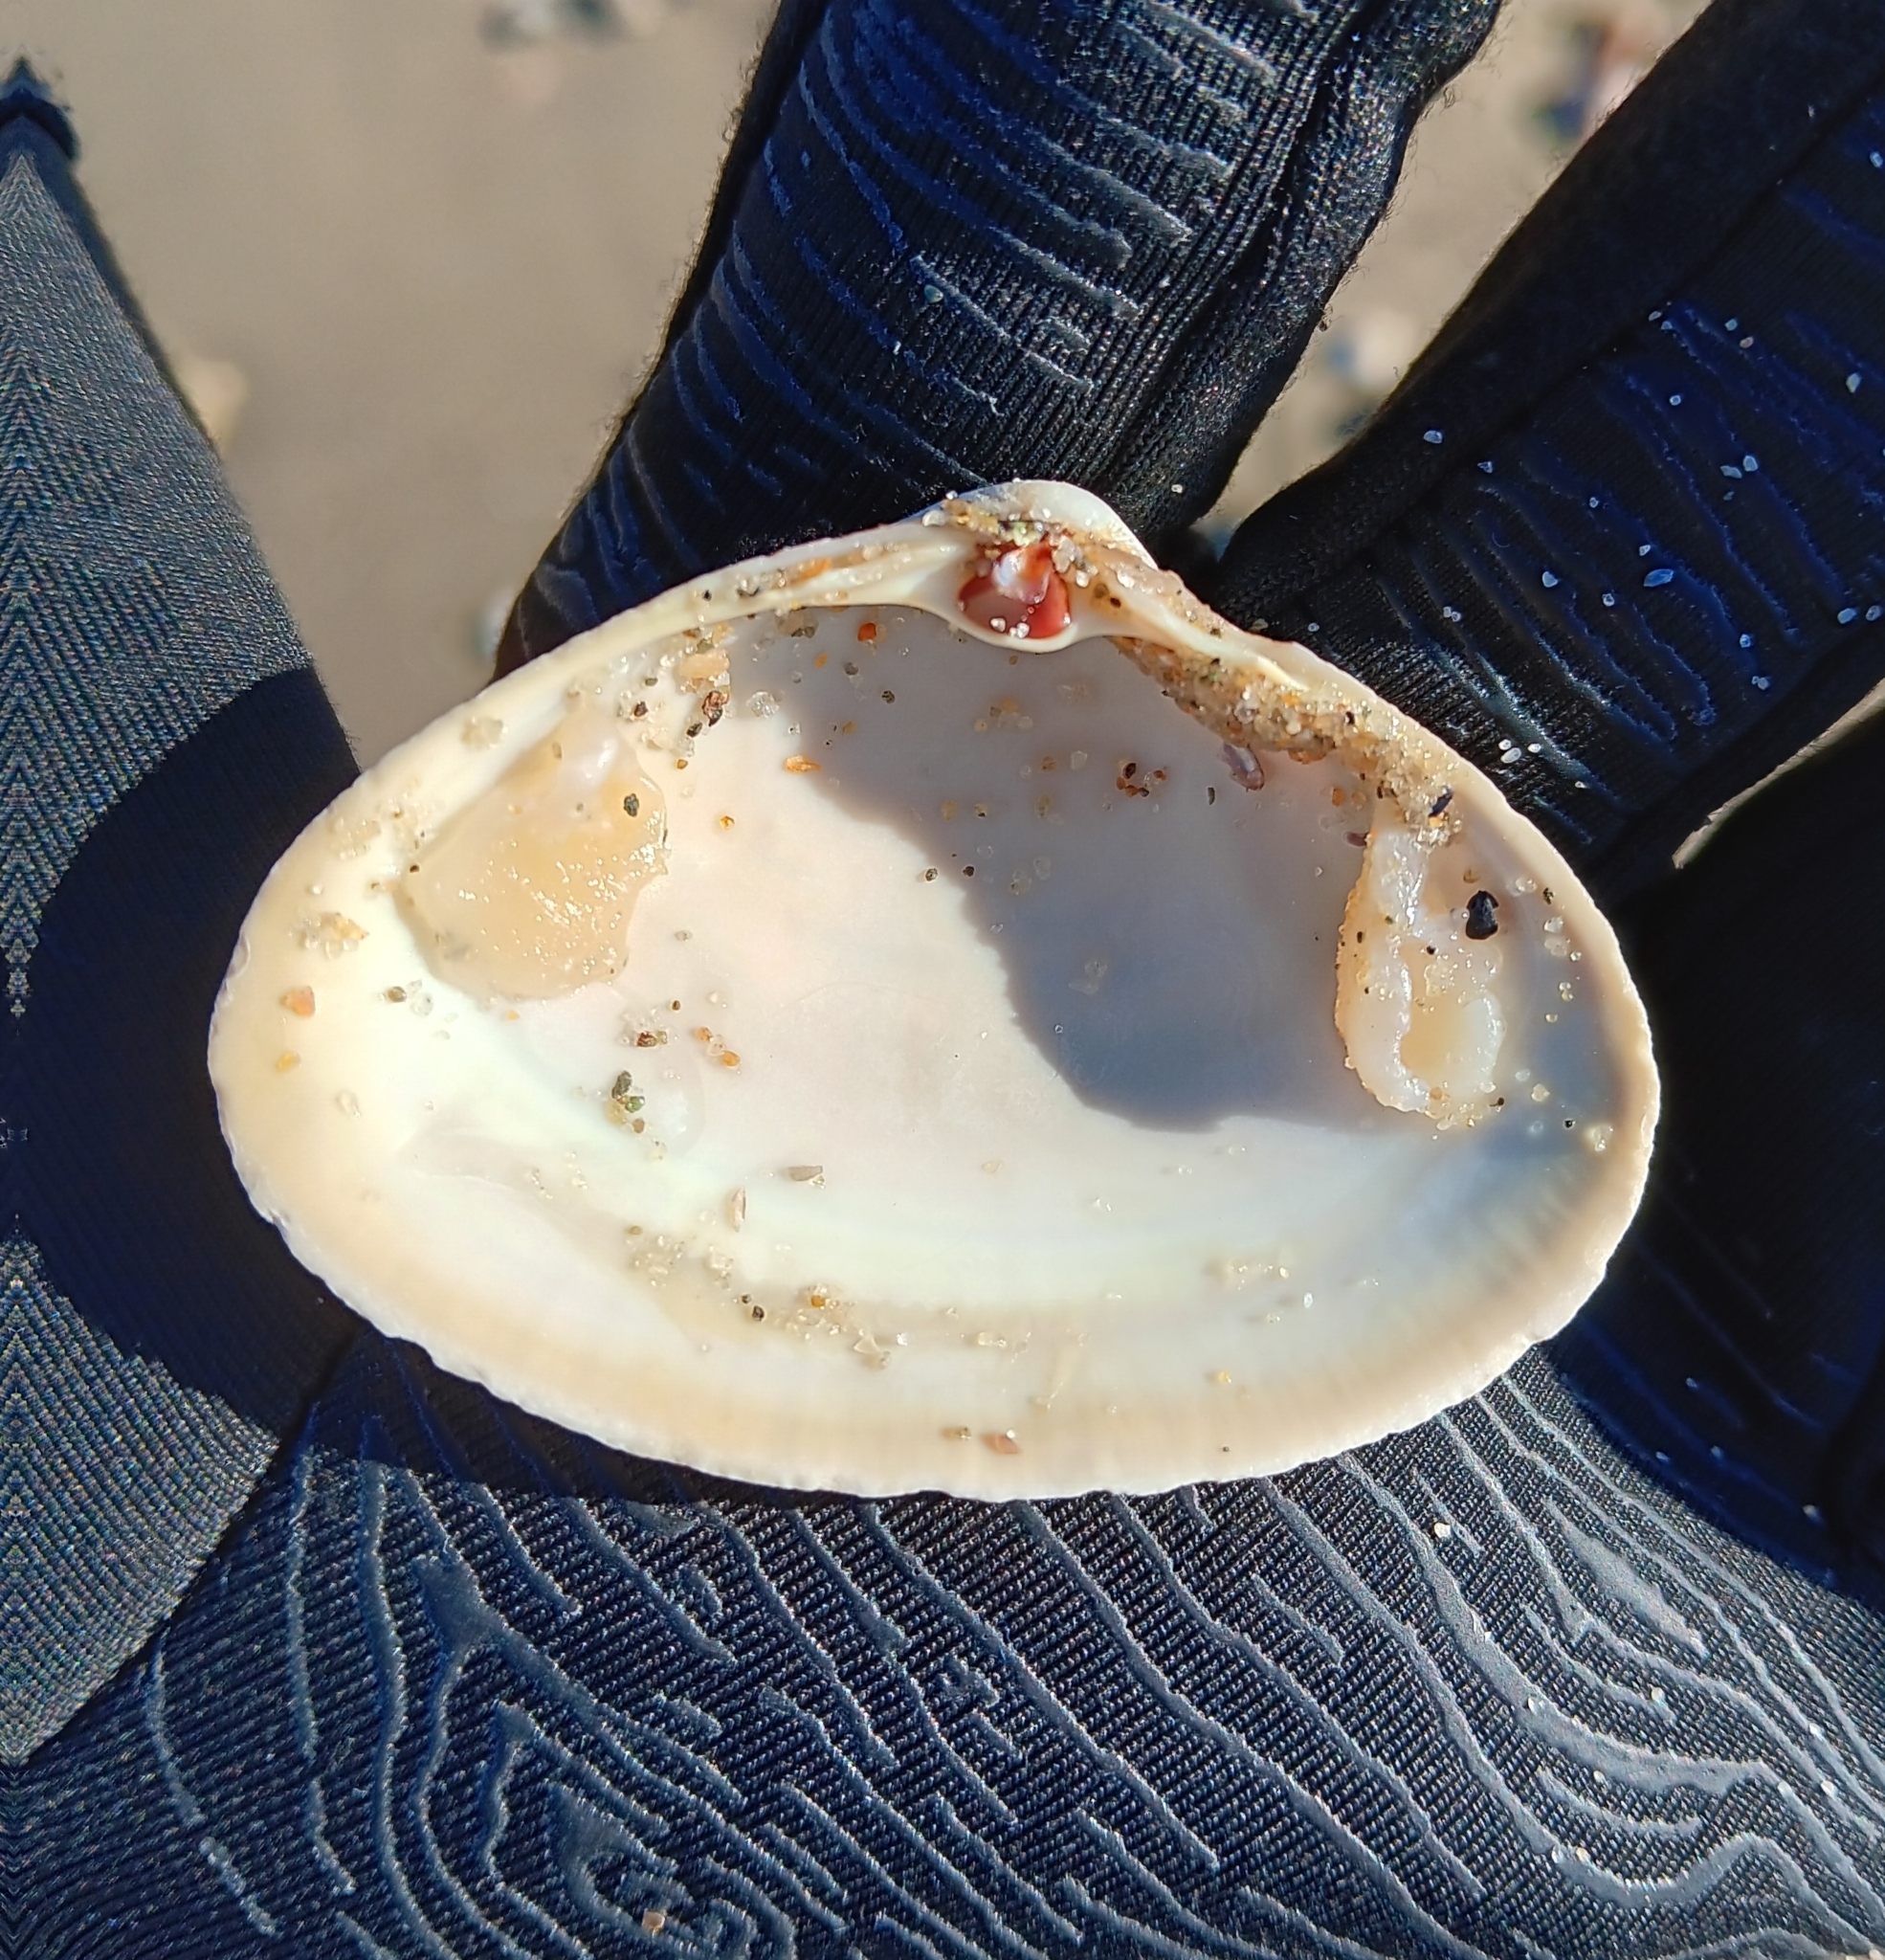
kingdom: Animalia
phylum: Mollusca
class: Bivalvia
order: Venerida
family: Mactridae
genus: Spisula
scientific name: Spisula solidissima
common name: Atlantic surf clam
